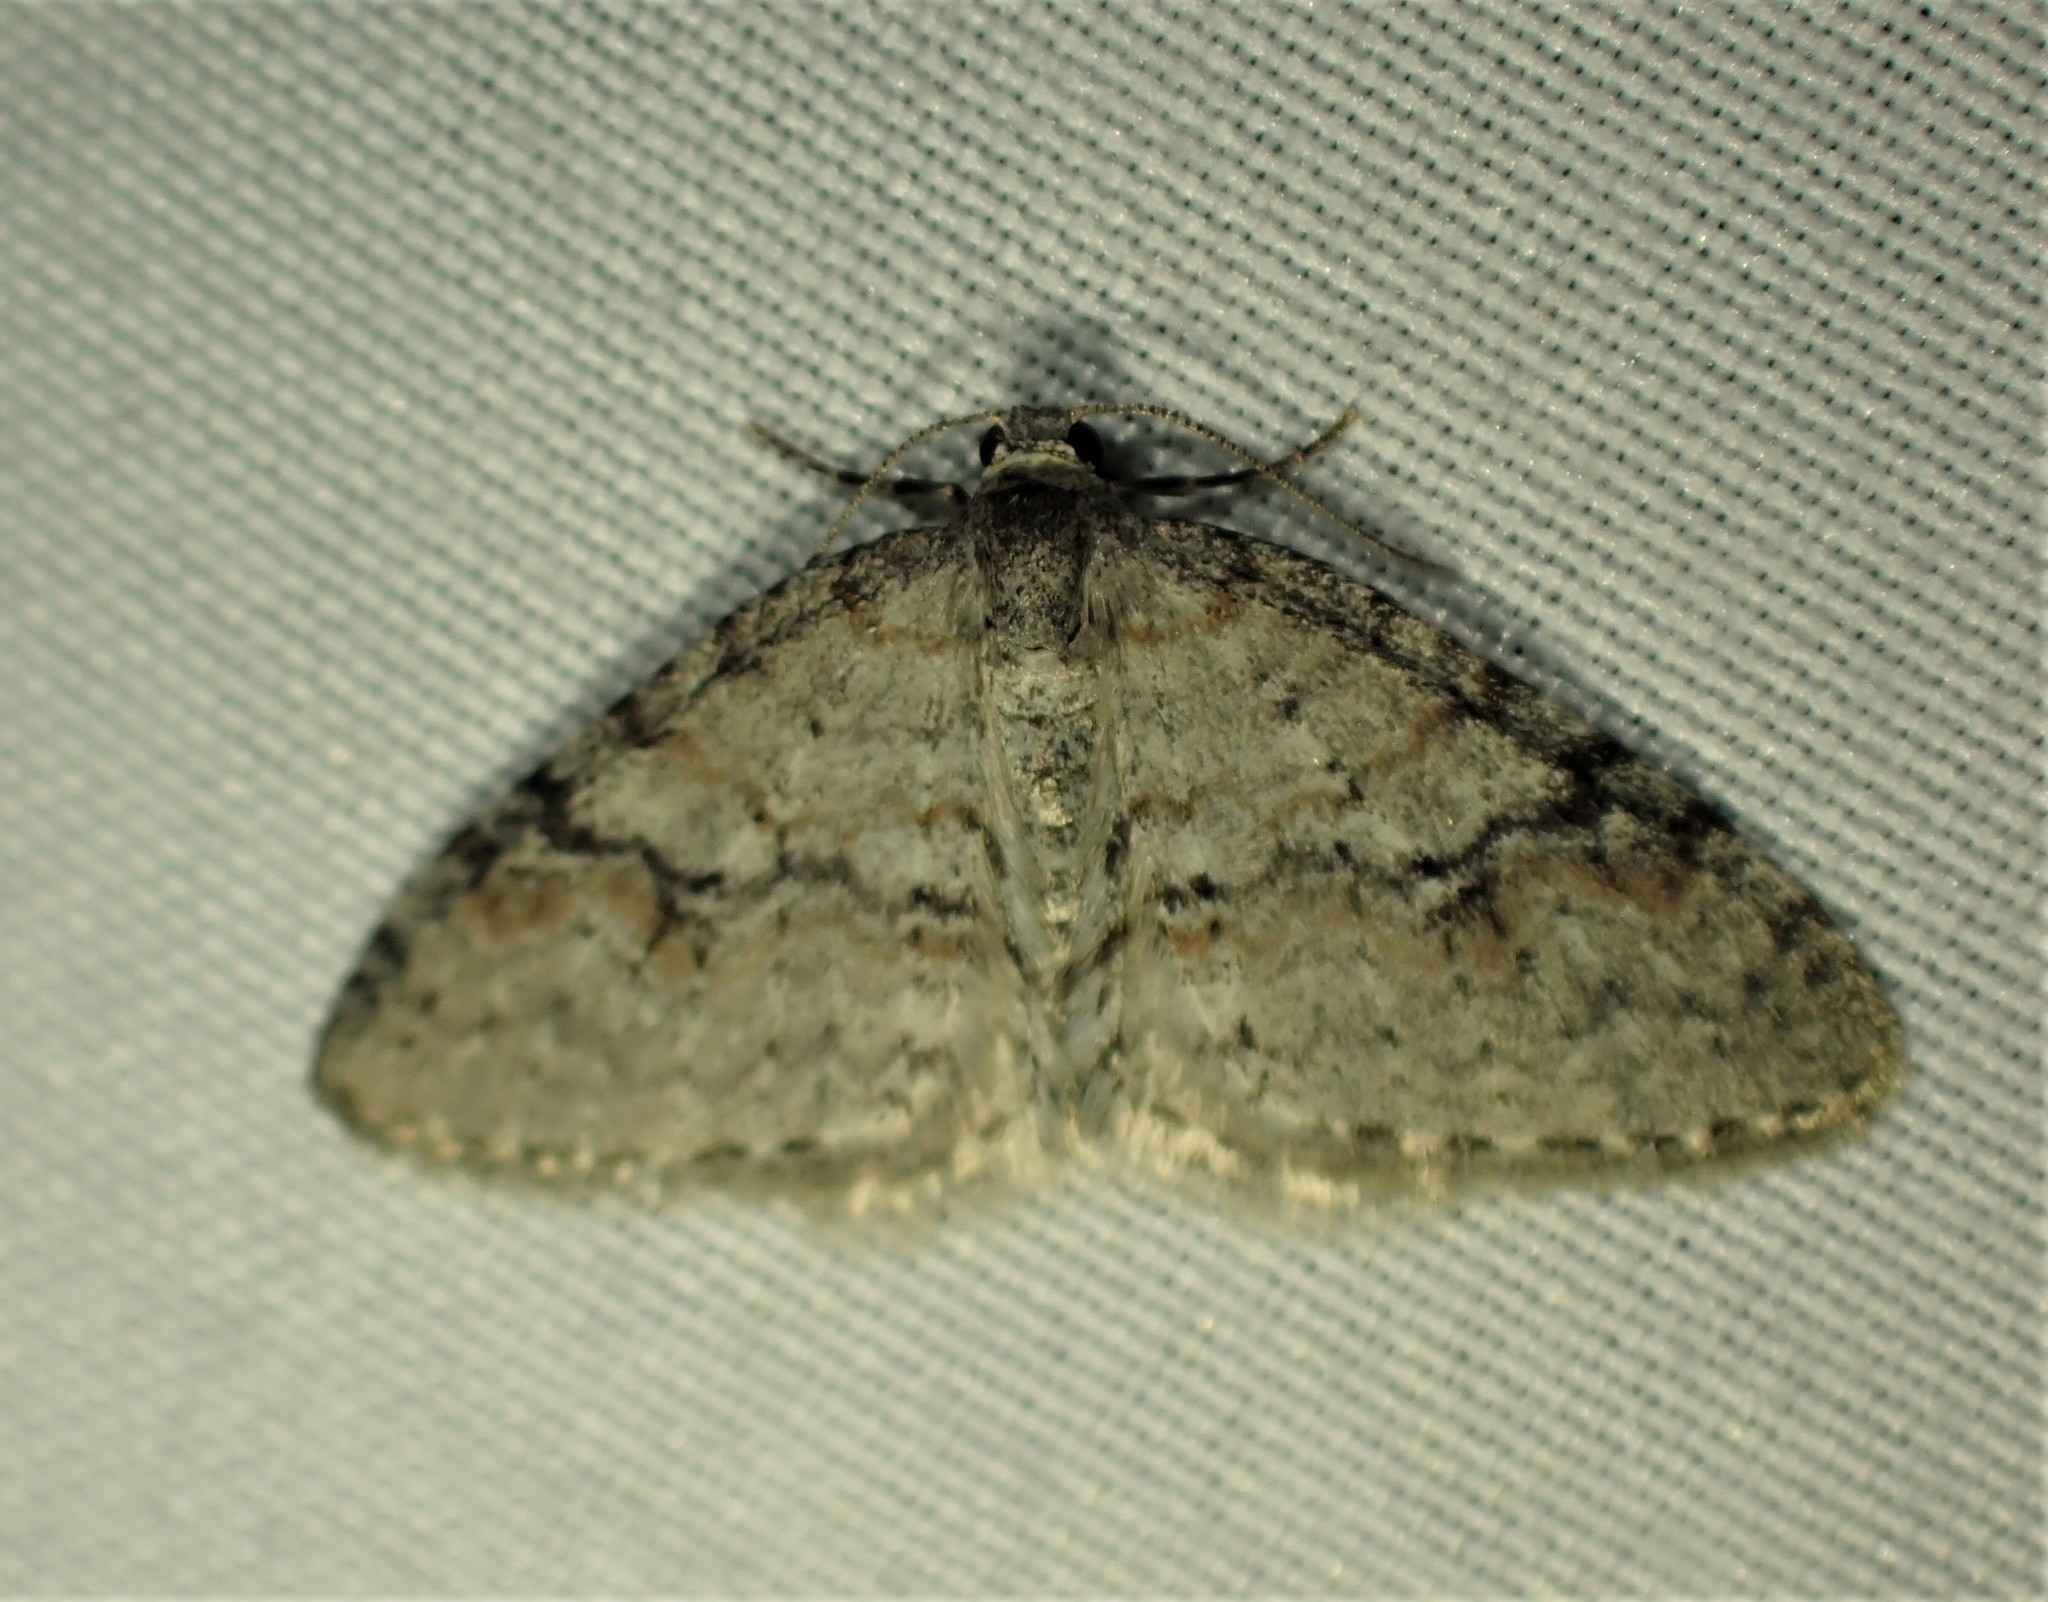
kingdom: Animalia
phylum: Arthropoda
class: Insecta
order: Lepidoptera
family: Geometridae
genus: Venusia
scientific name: Venusia comptaria
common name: Brown-shaded carpet
